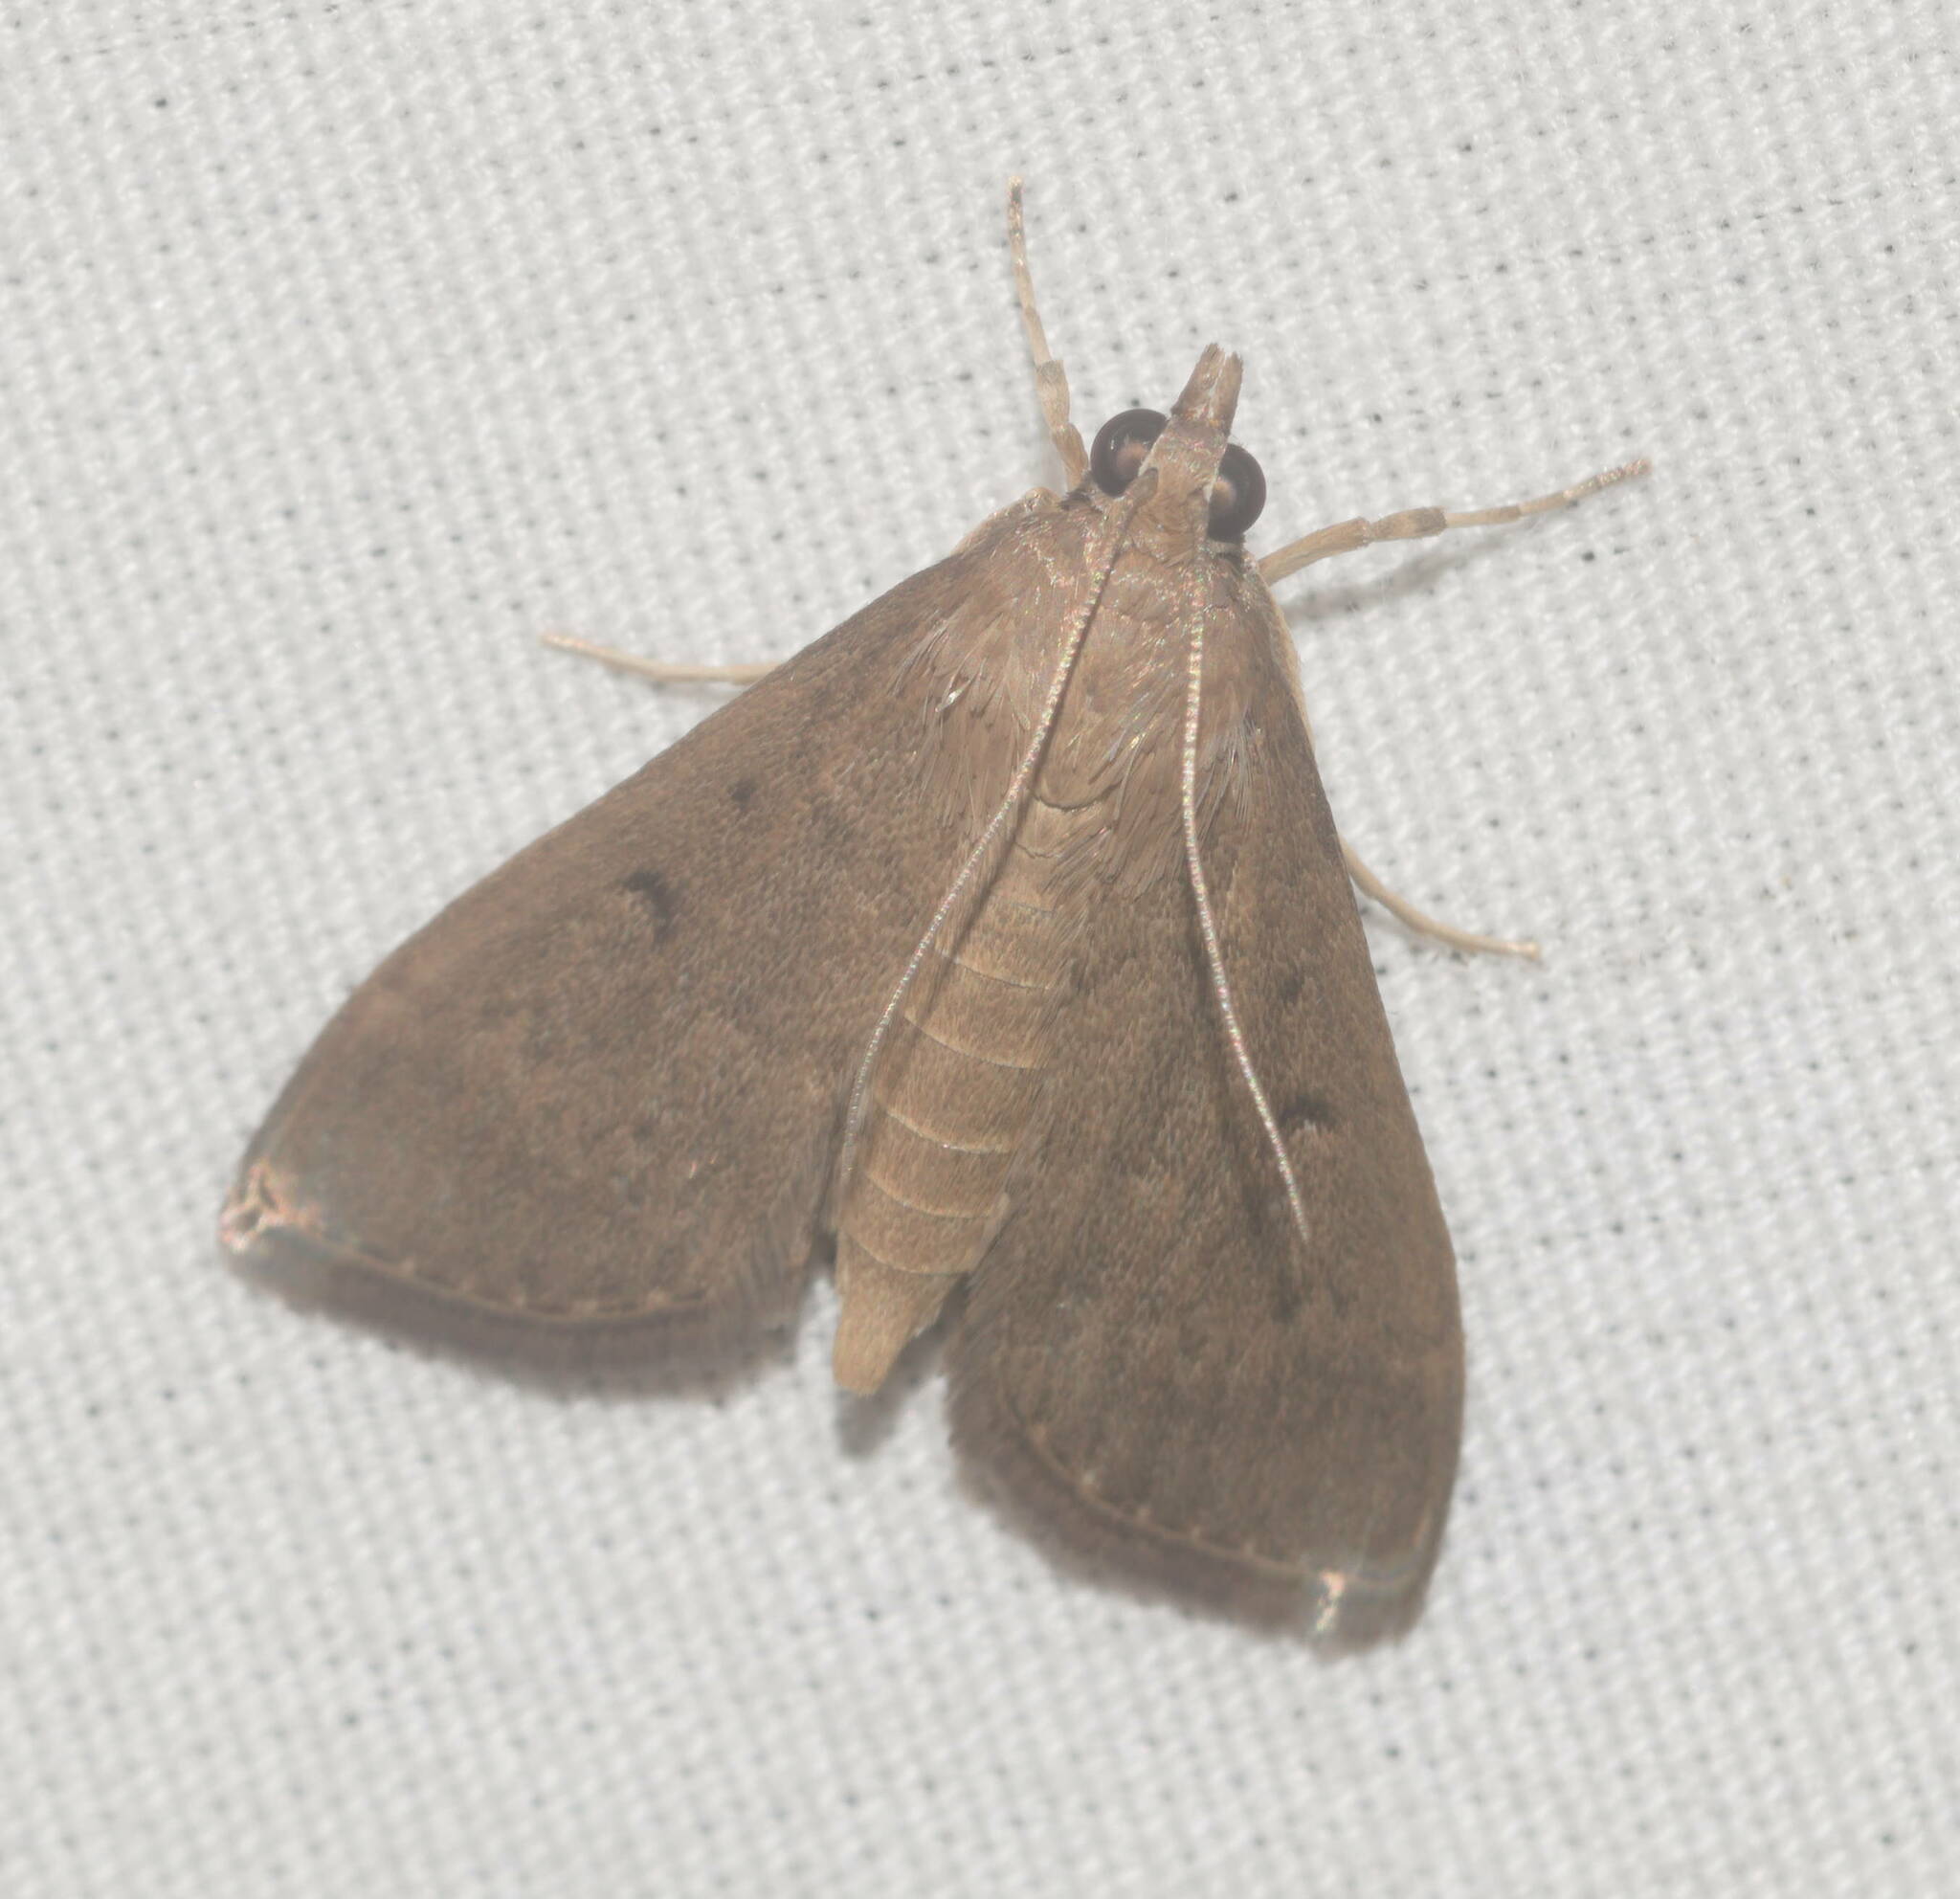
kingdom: Animalia
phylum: Arthropoda
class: Insecta
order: Lepidoptera
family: Crambidae
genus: Herpetogramma
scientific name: Herpetogramma licarsisalis
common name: Grass webworm
